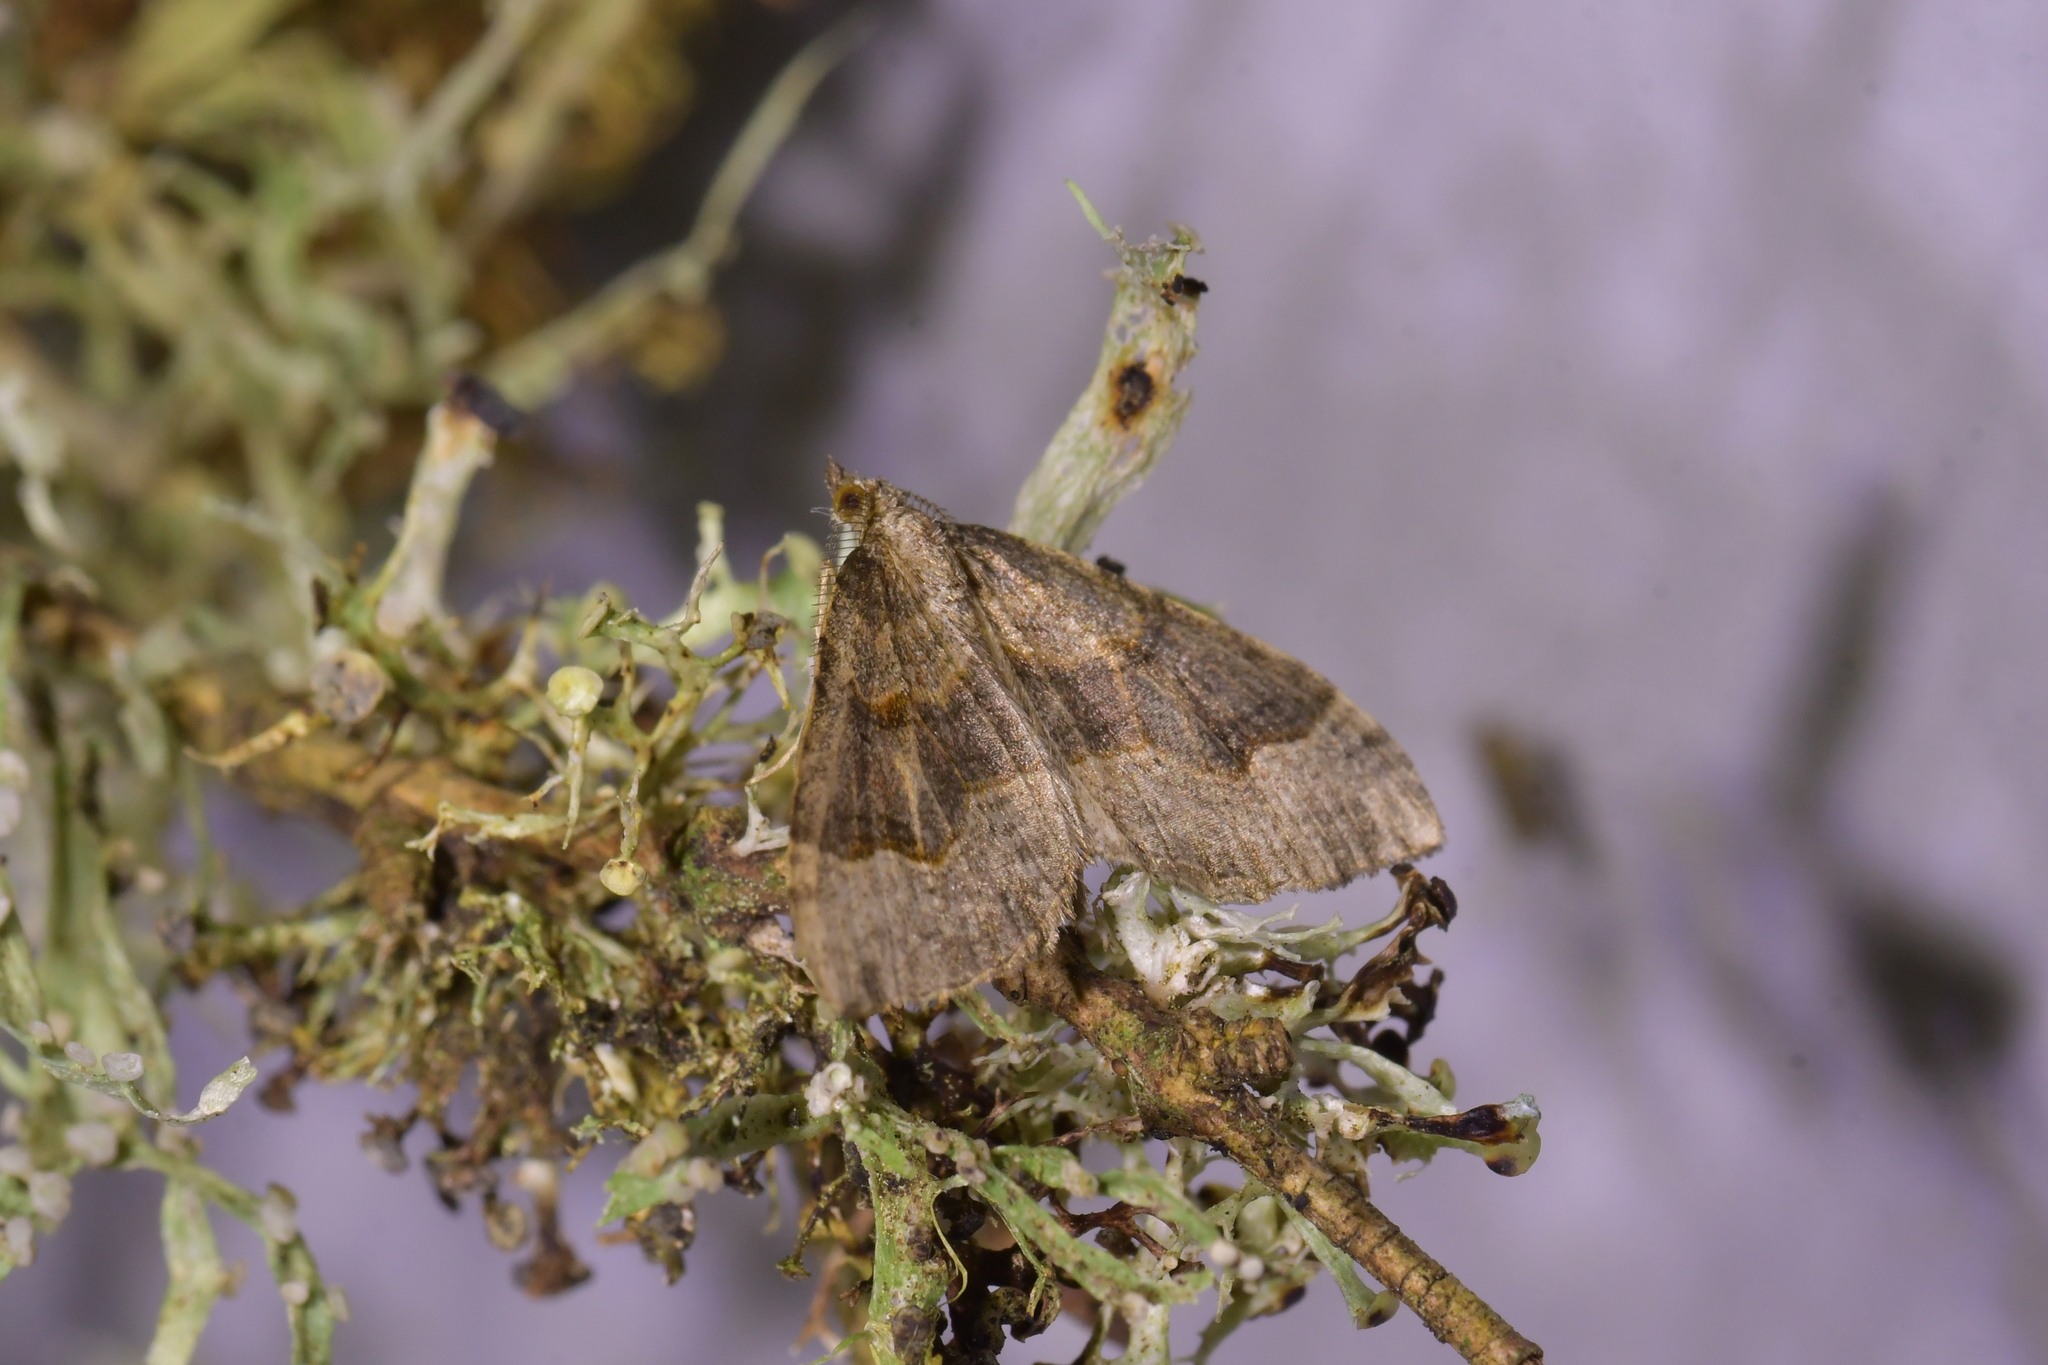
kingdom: Animalia
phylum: Arthropoda
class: Insecta
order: Lepidoptera
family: Geometridae
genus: Epyaxa
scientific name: Epyaxa rosearia
